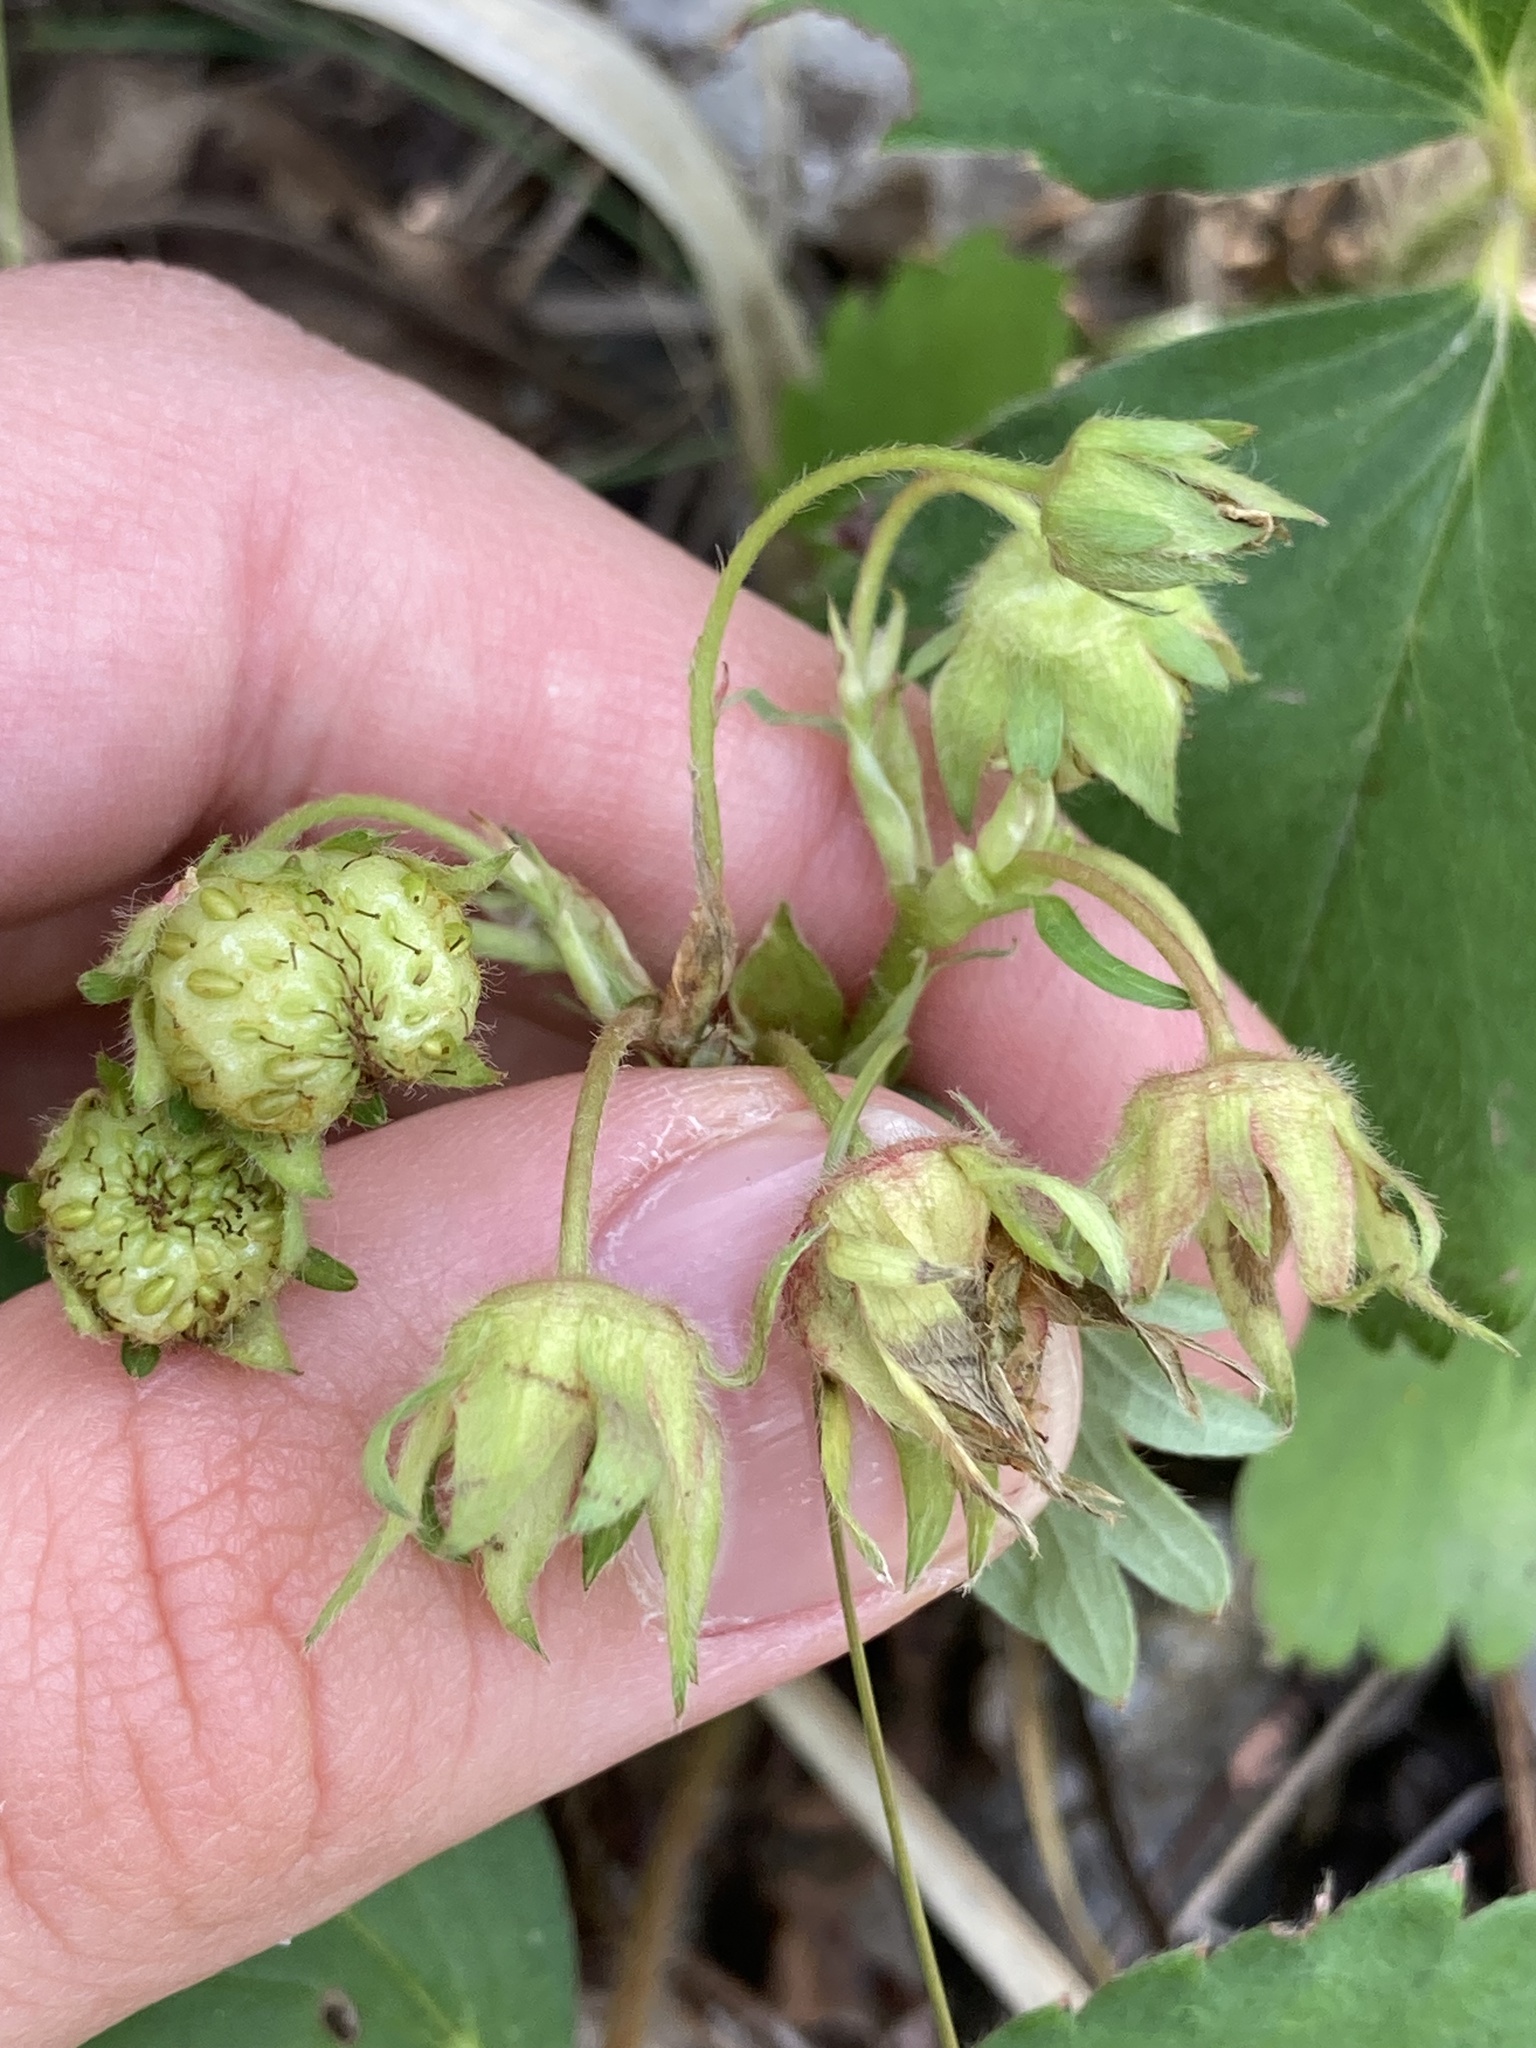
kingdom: Plantae
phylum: Tracheophyta
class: Magnoliopsida
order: Rosales
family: Rosaceae
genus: Fragaria
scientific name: Fragaria viridis
